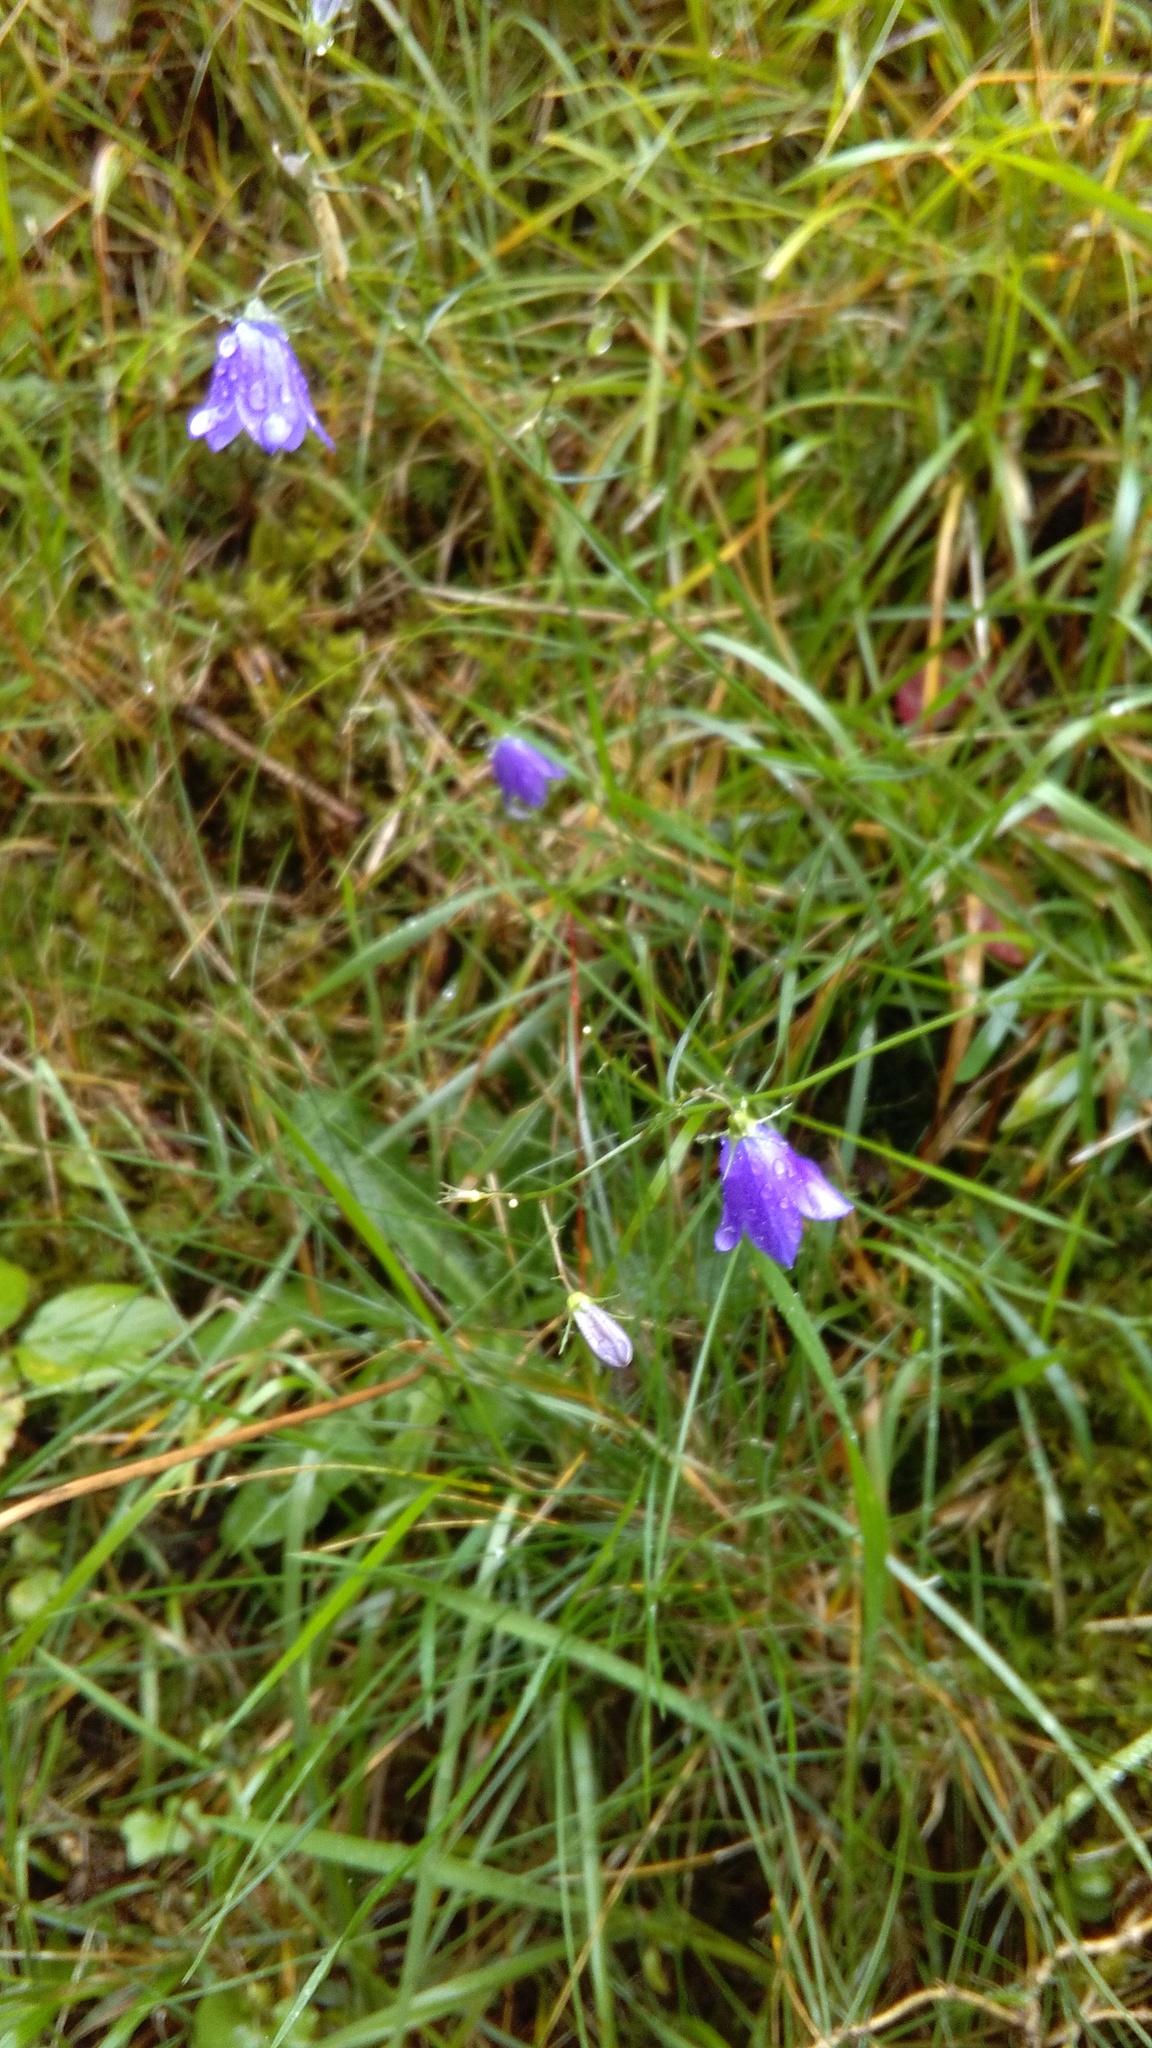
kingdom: Plantae
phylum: Tracheophyta
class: Magnoliopsida
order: Asterales
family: Campanulaceae
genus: Campanula
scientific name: Campanula rotundifolia
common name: Harebell
